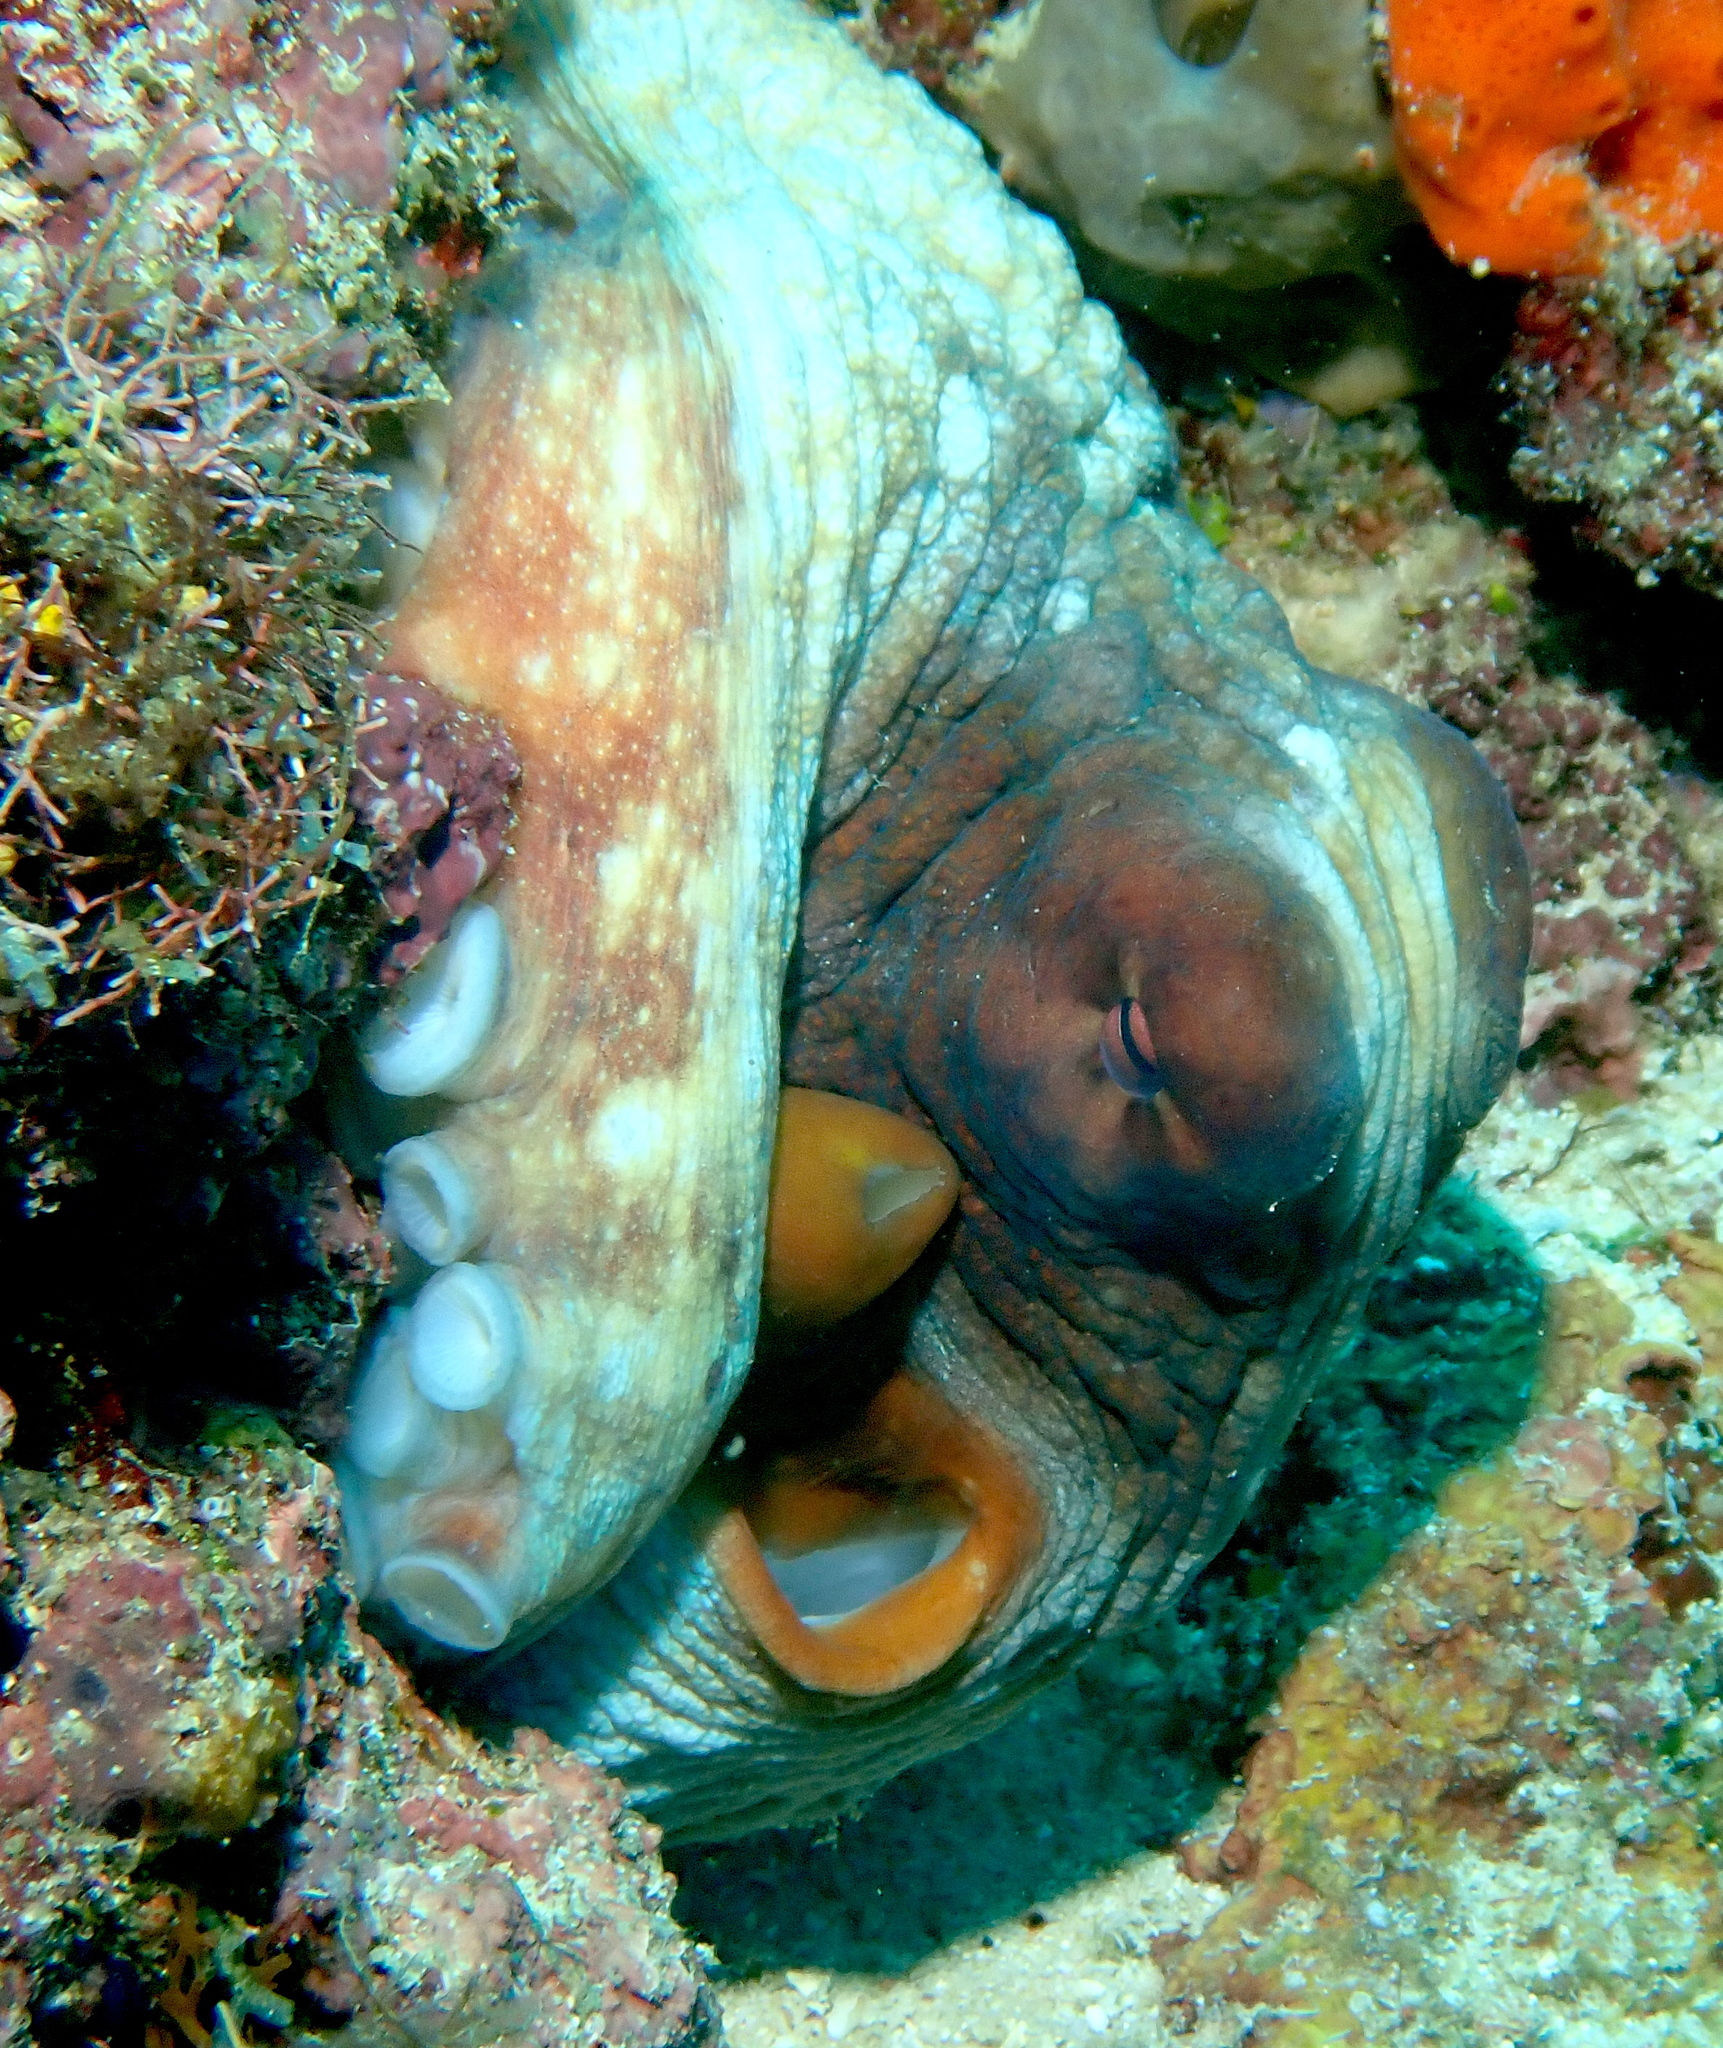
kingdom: Animalia
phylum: Mollusca
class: Cephalopoda
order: Octopoda
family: Octopodidae
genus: Octopus
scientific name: Octopus cyanea
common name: Cyane's octopus
